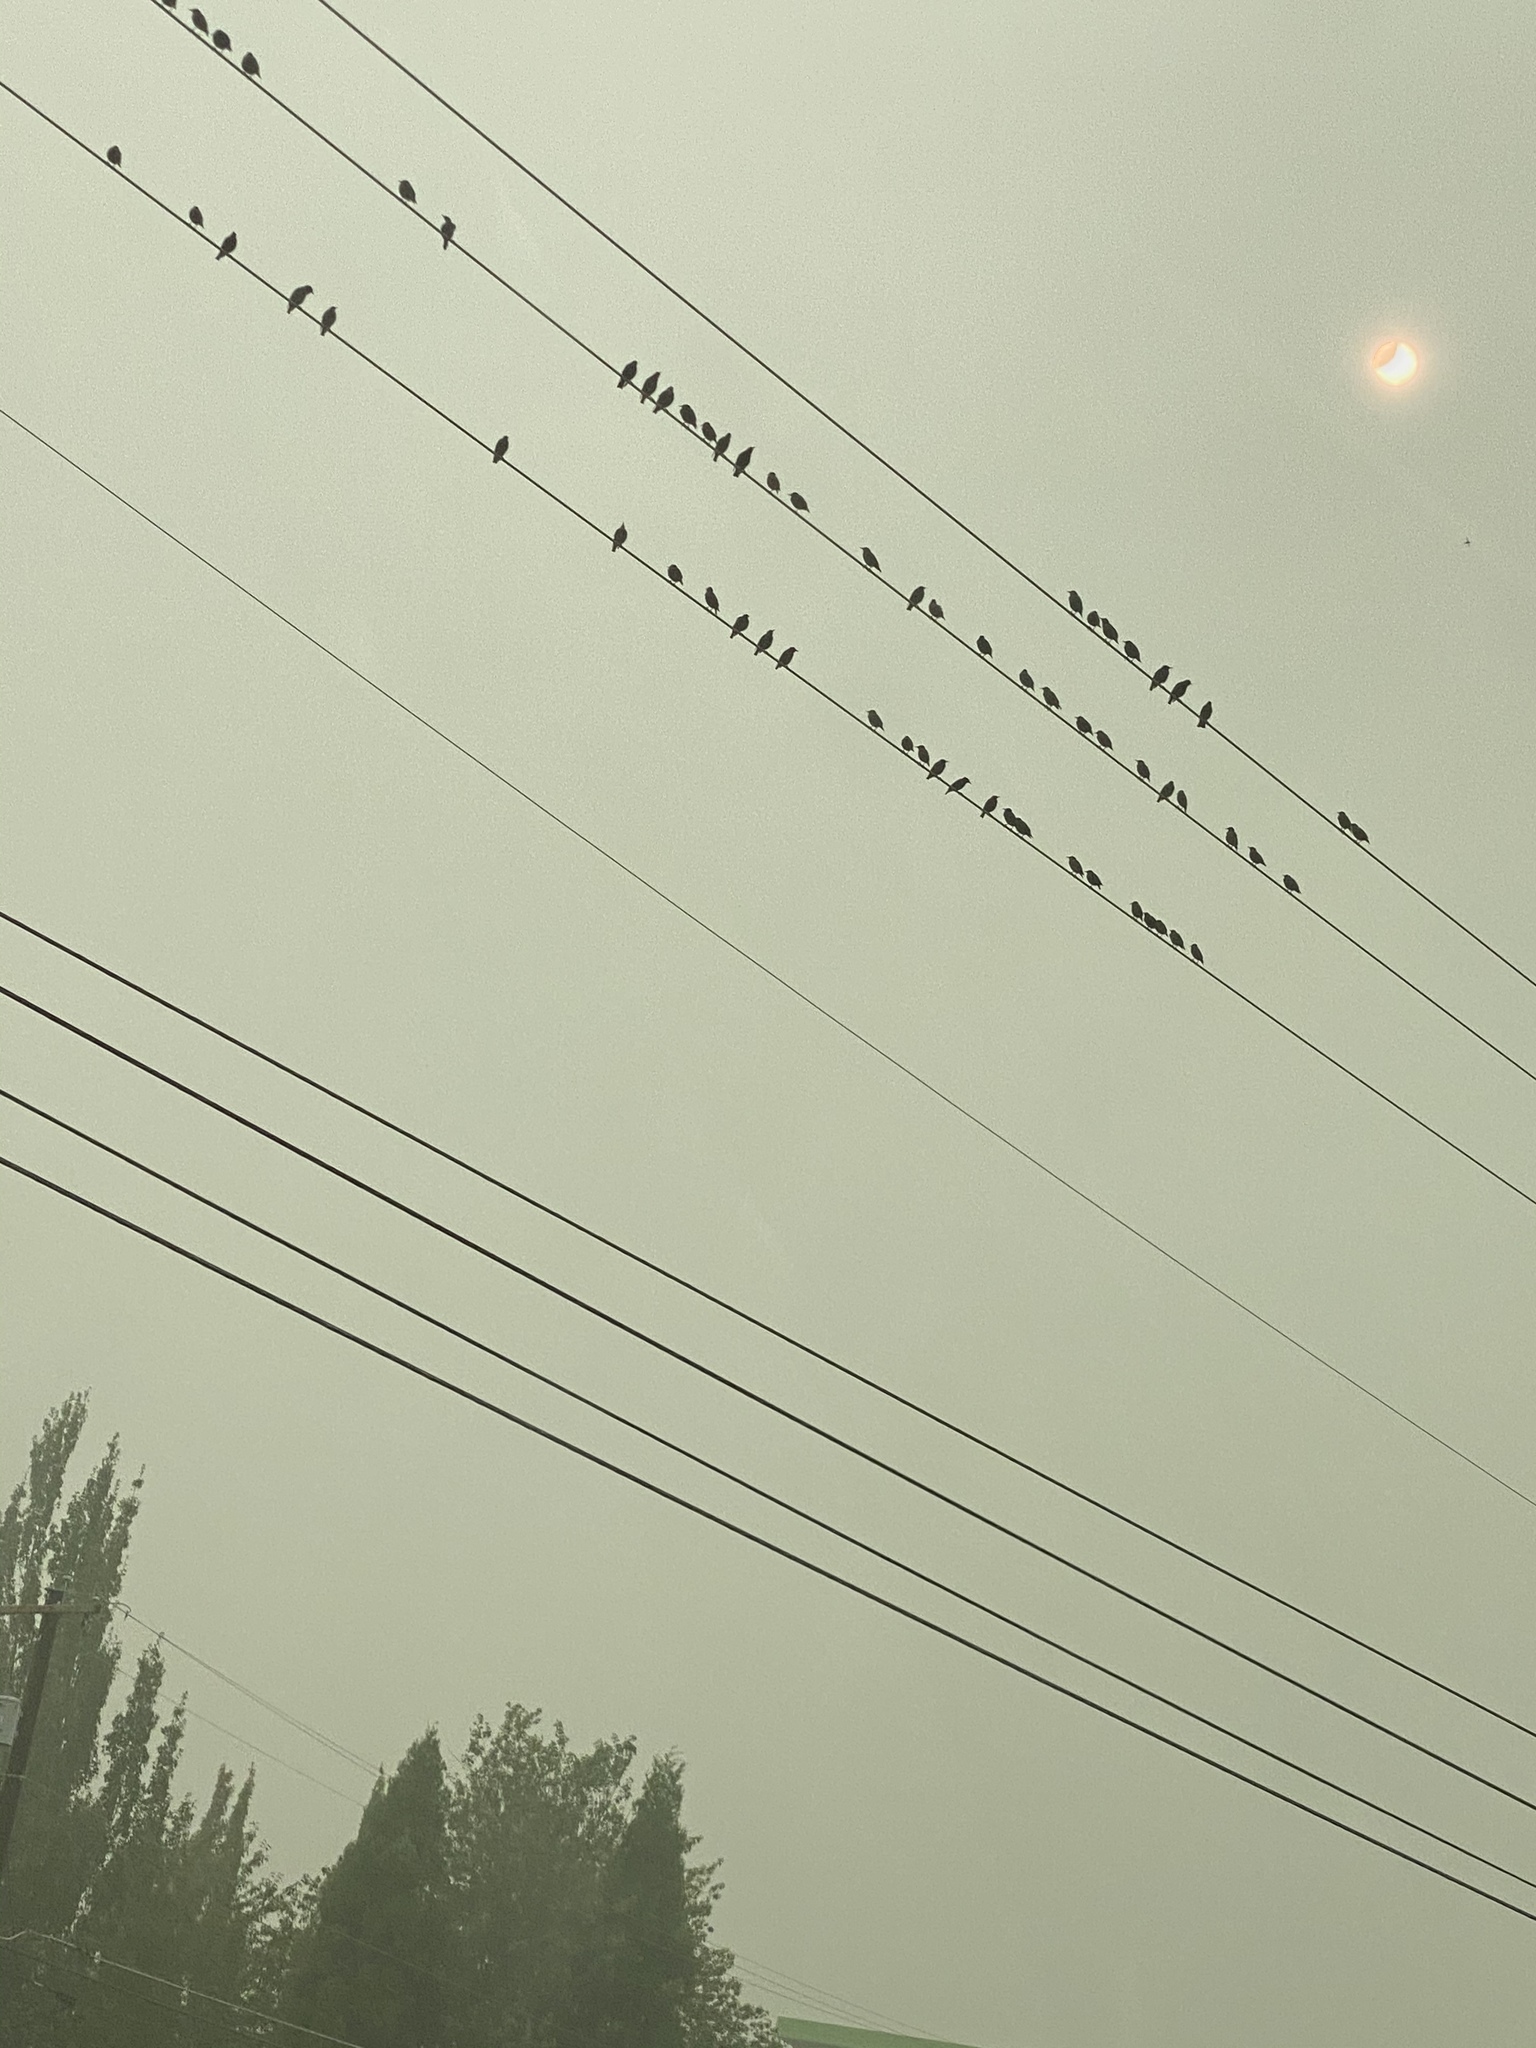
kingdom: Animalia
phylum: Chordata
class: Aves
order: Passeriformes
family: Sturnidae
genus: Sturnus
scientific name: Sturnus vulgaris
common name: Common starling
